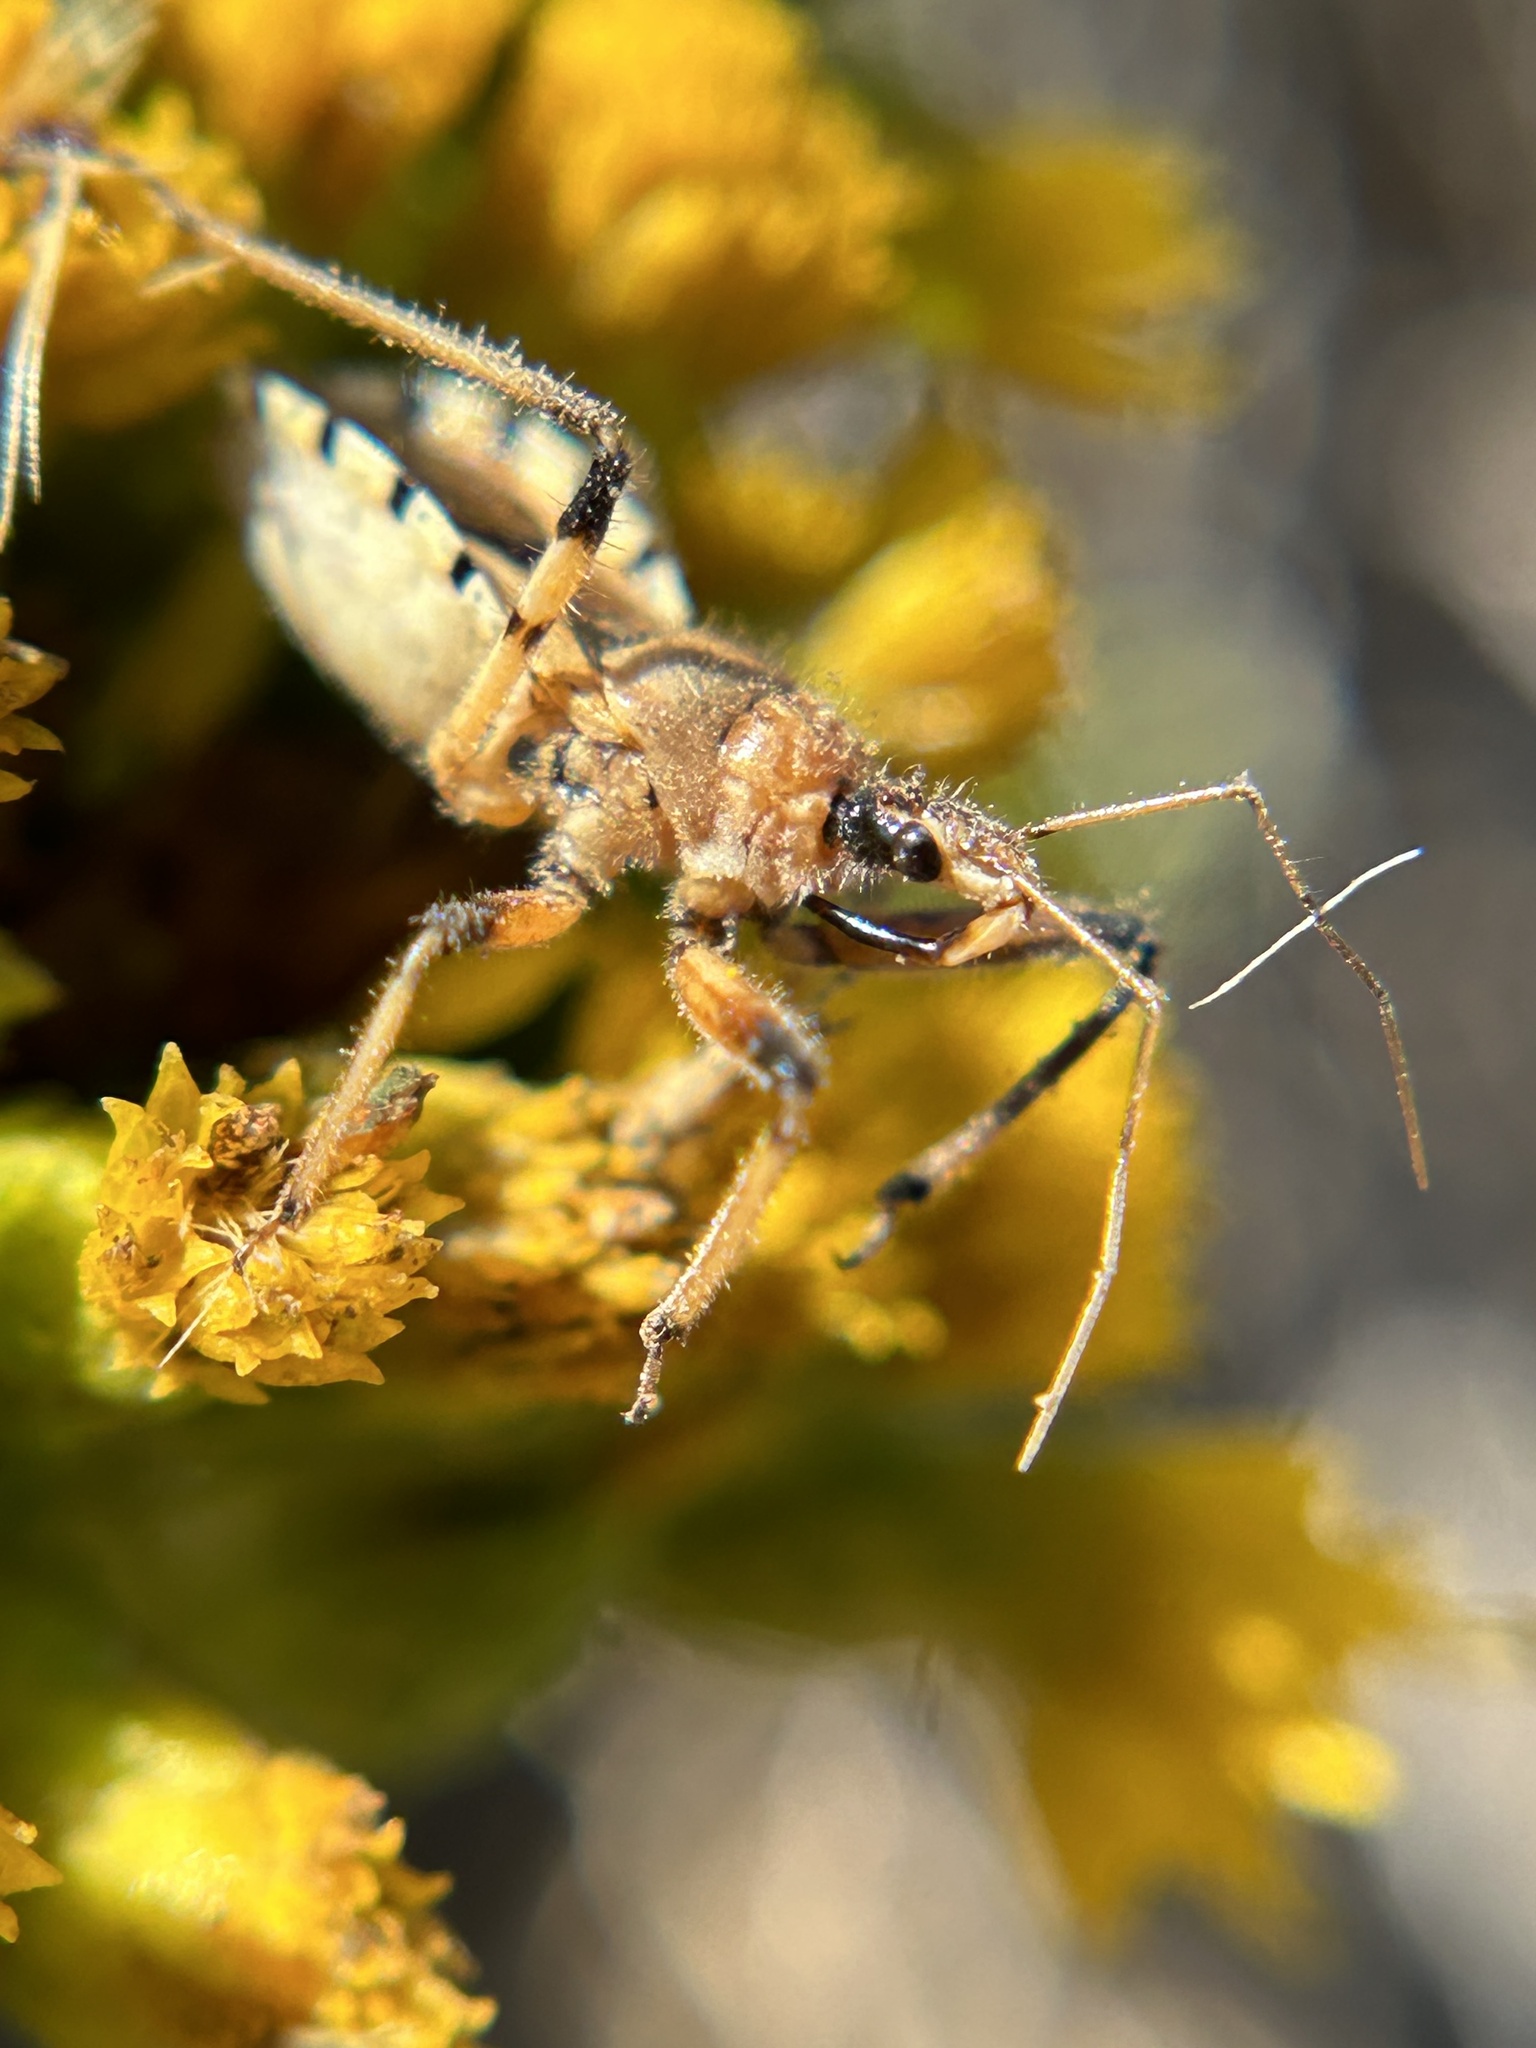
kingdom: Animalia
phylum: Arthropoda
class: Insecta
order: Hemiptera
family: Reduviidae
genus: Rhynocoris
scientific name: Rhynocoris ventralis
